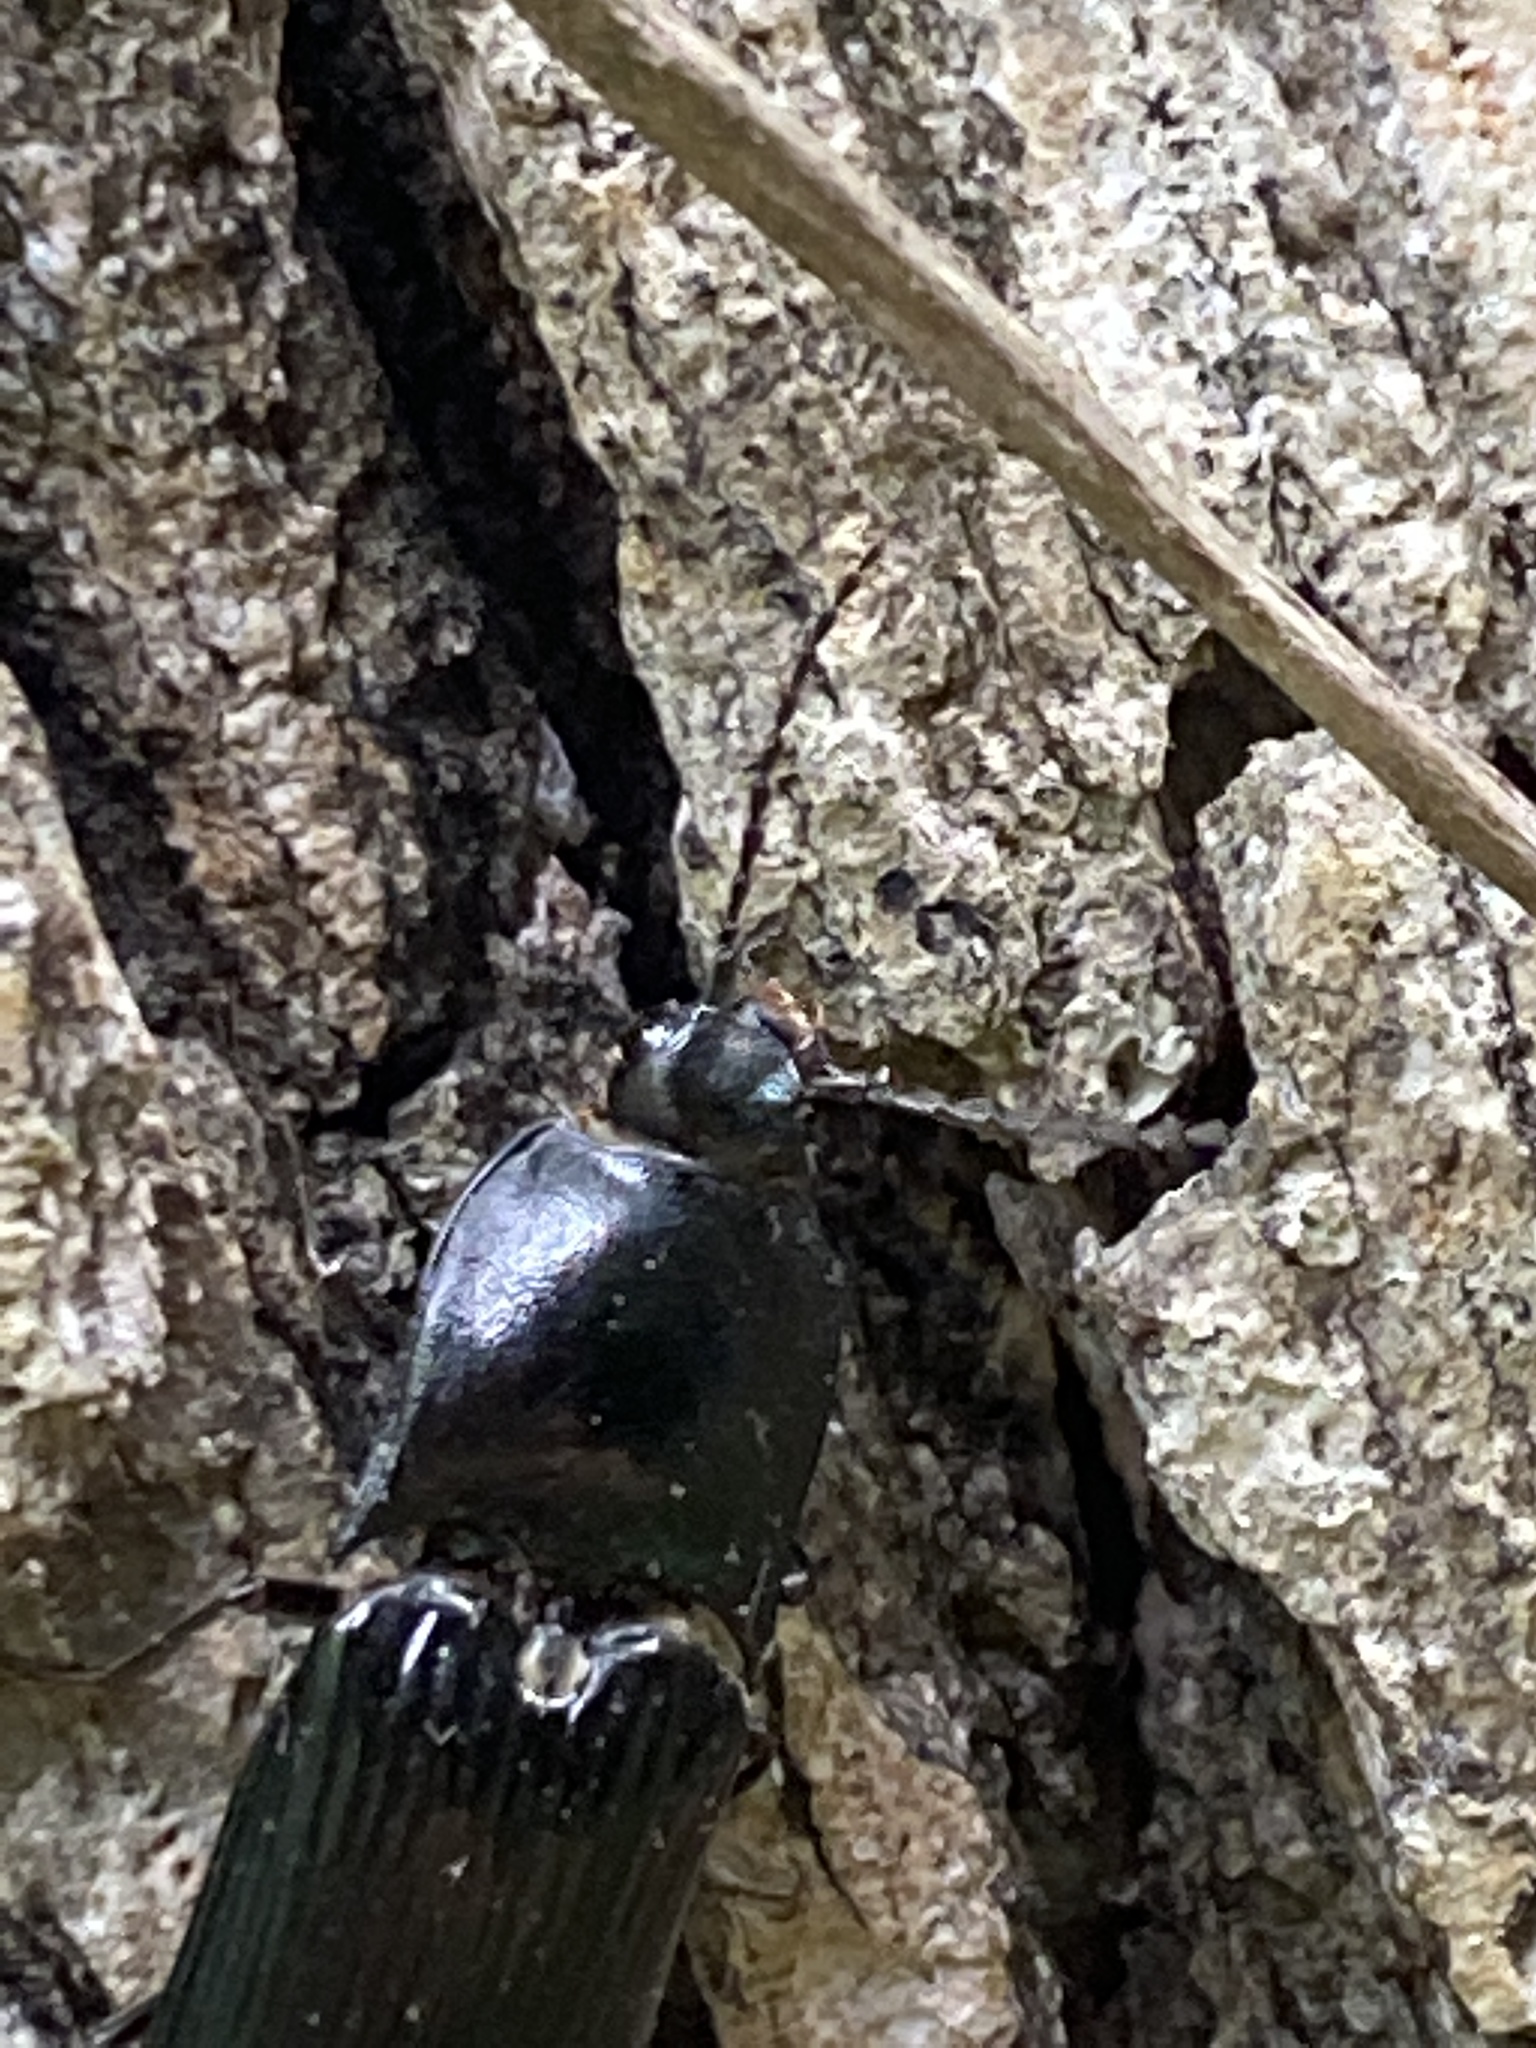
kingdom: Animalia
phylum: Arthropoda
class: Insecta
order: Coleoptera
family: Elateridae
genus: Melanactes
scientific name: Melanactes
